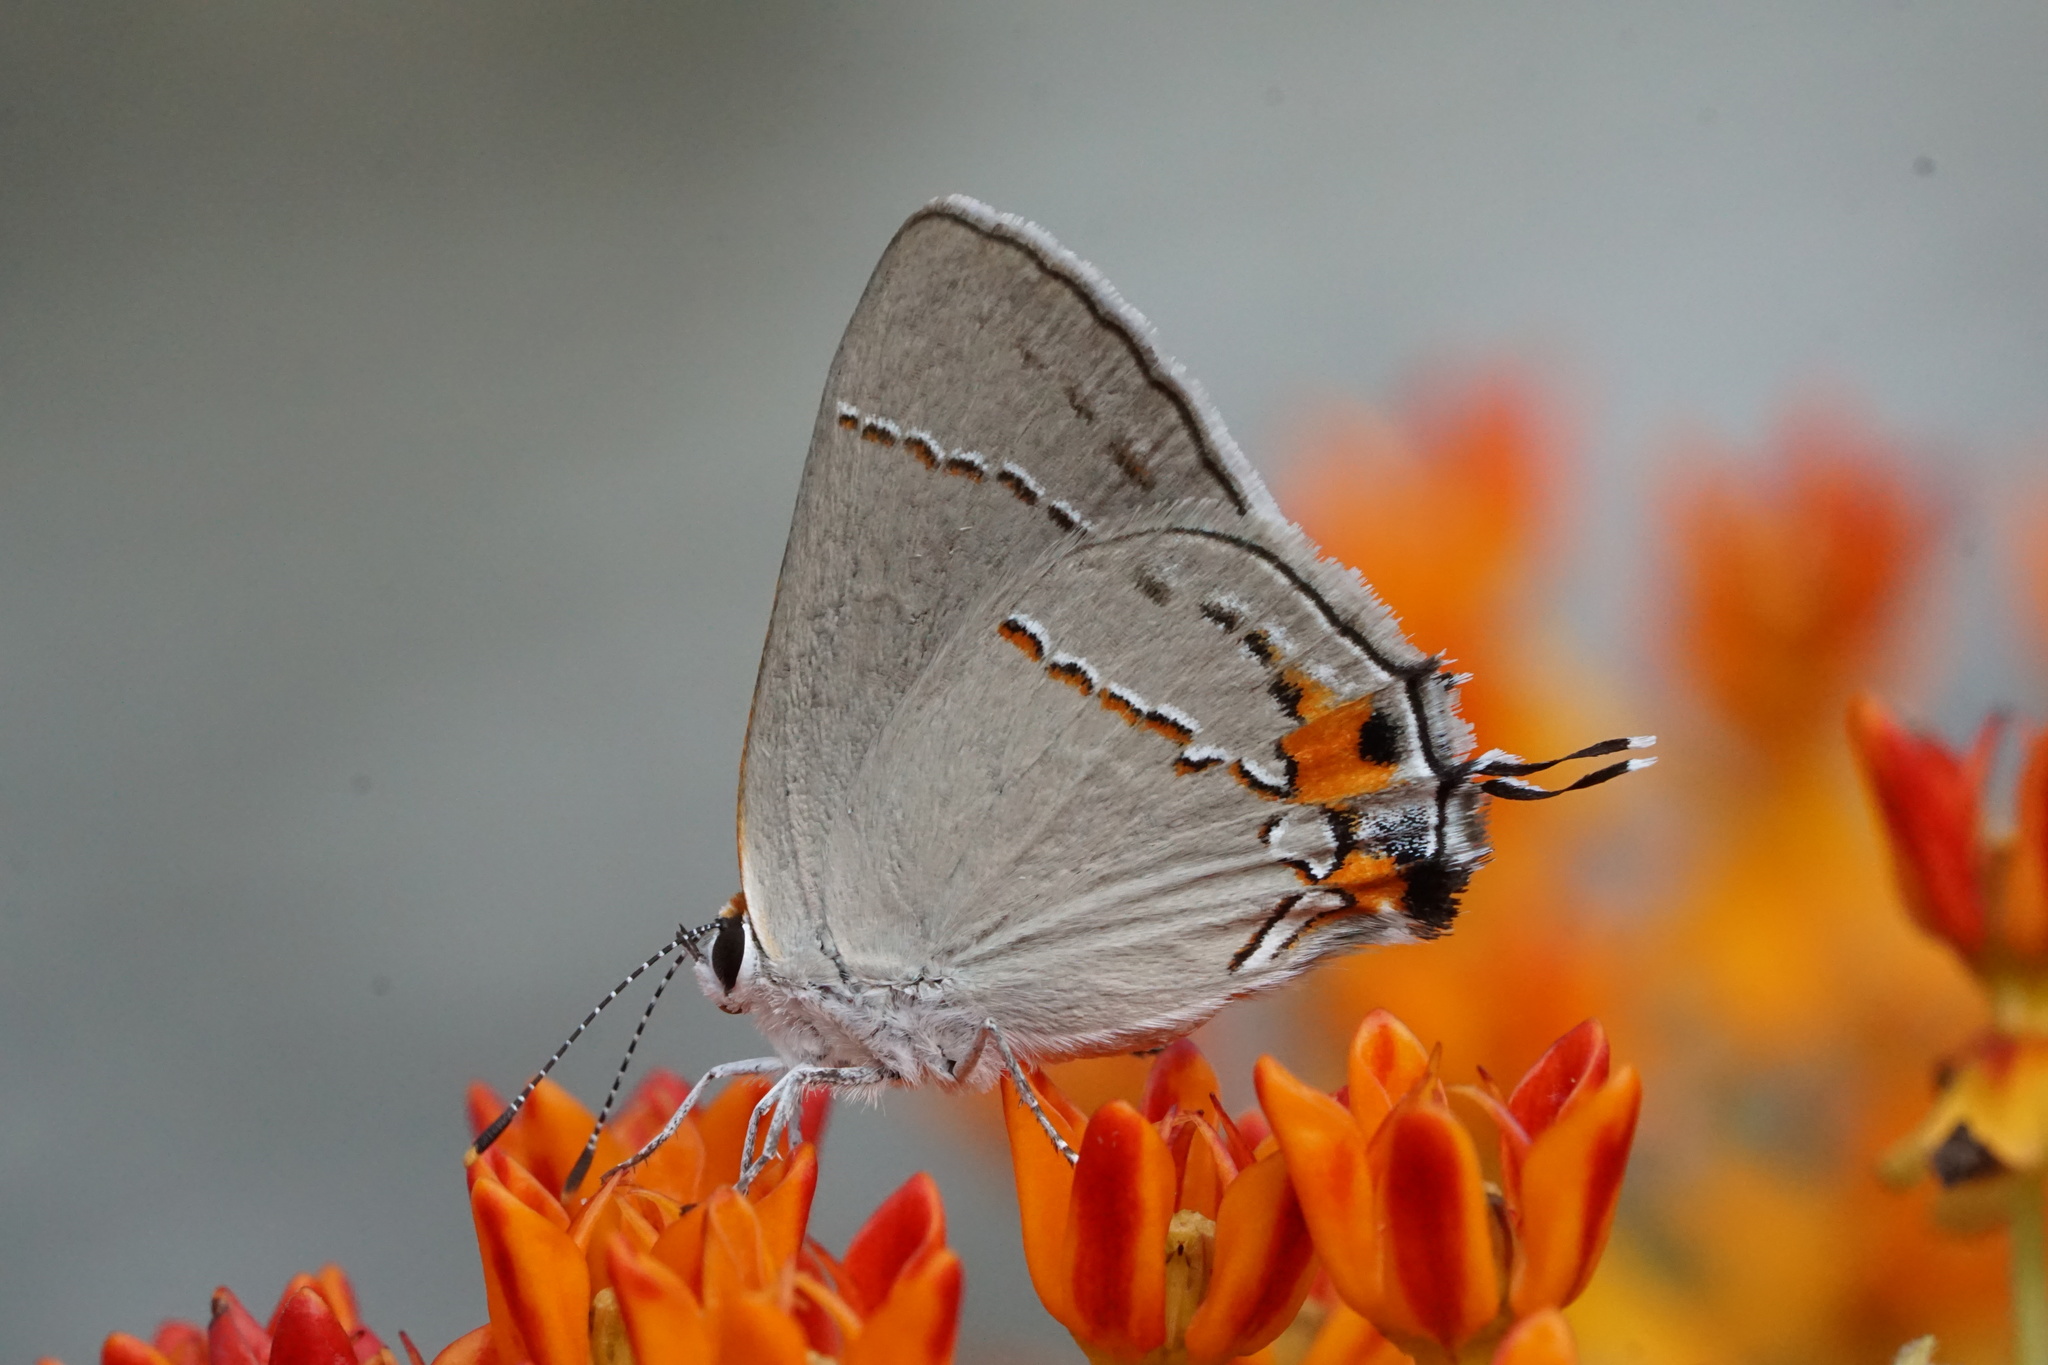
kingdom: Animalia
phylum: Arthropoda
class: Insecta
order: Lepidoptera
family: Lycaenidae
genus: Strymon
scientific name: Strymon melinus
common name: Gray hairstreak
